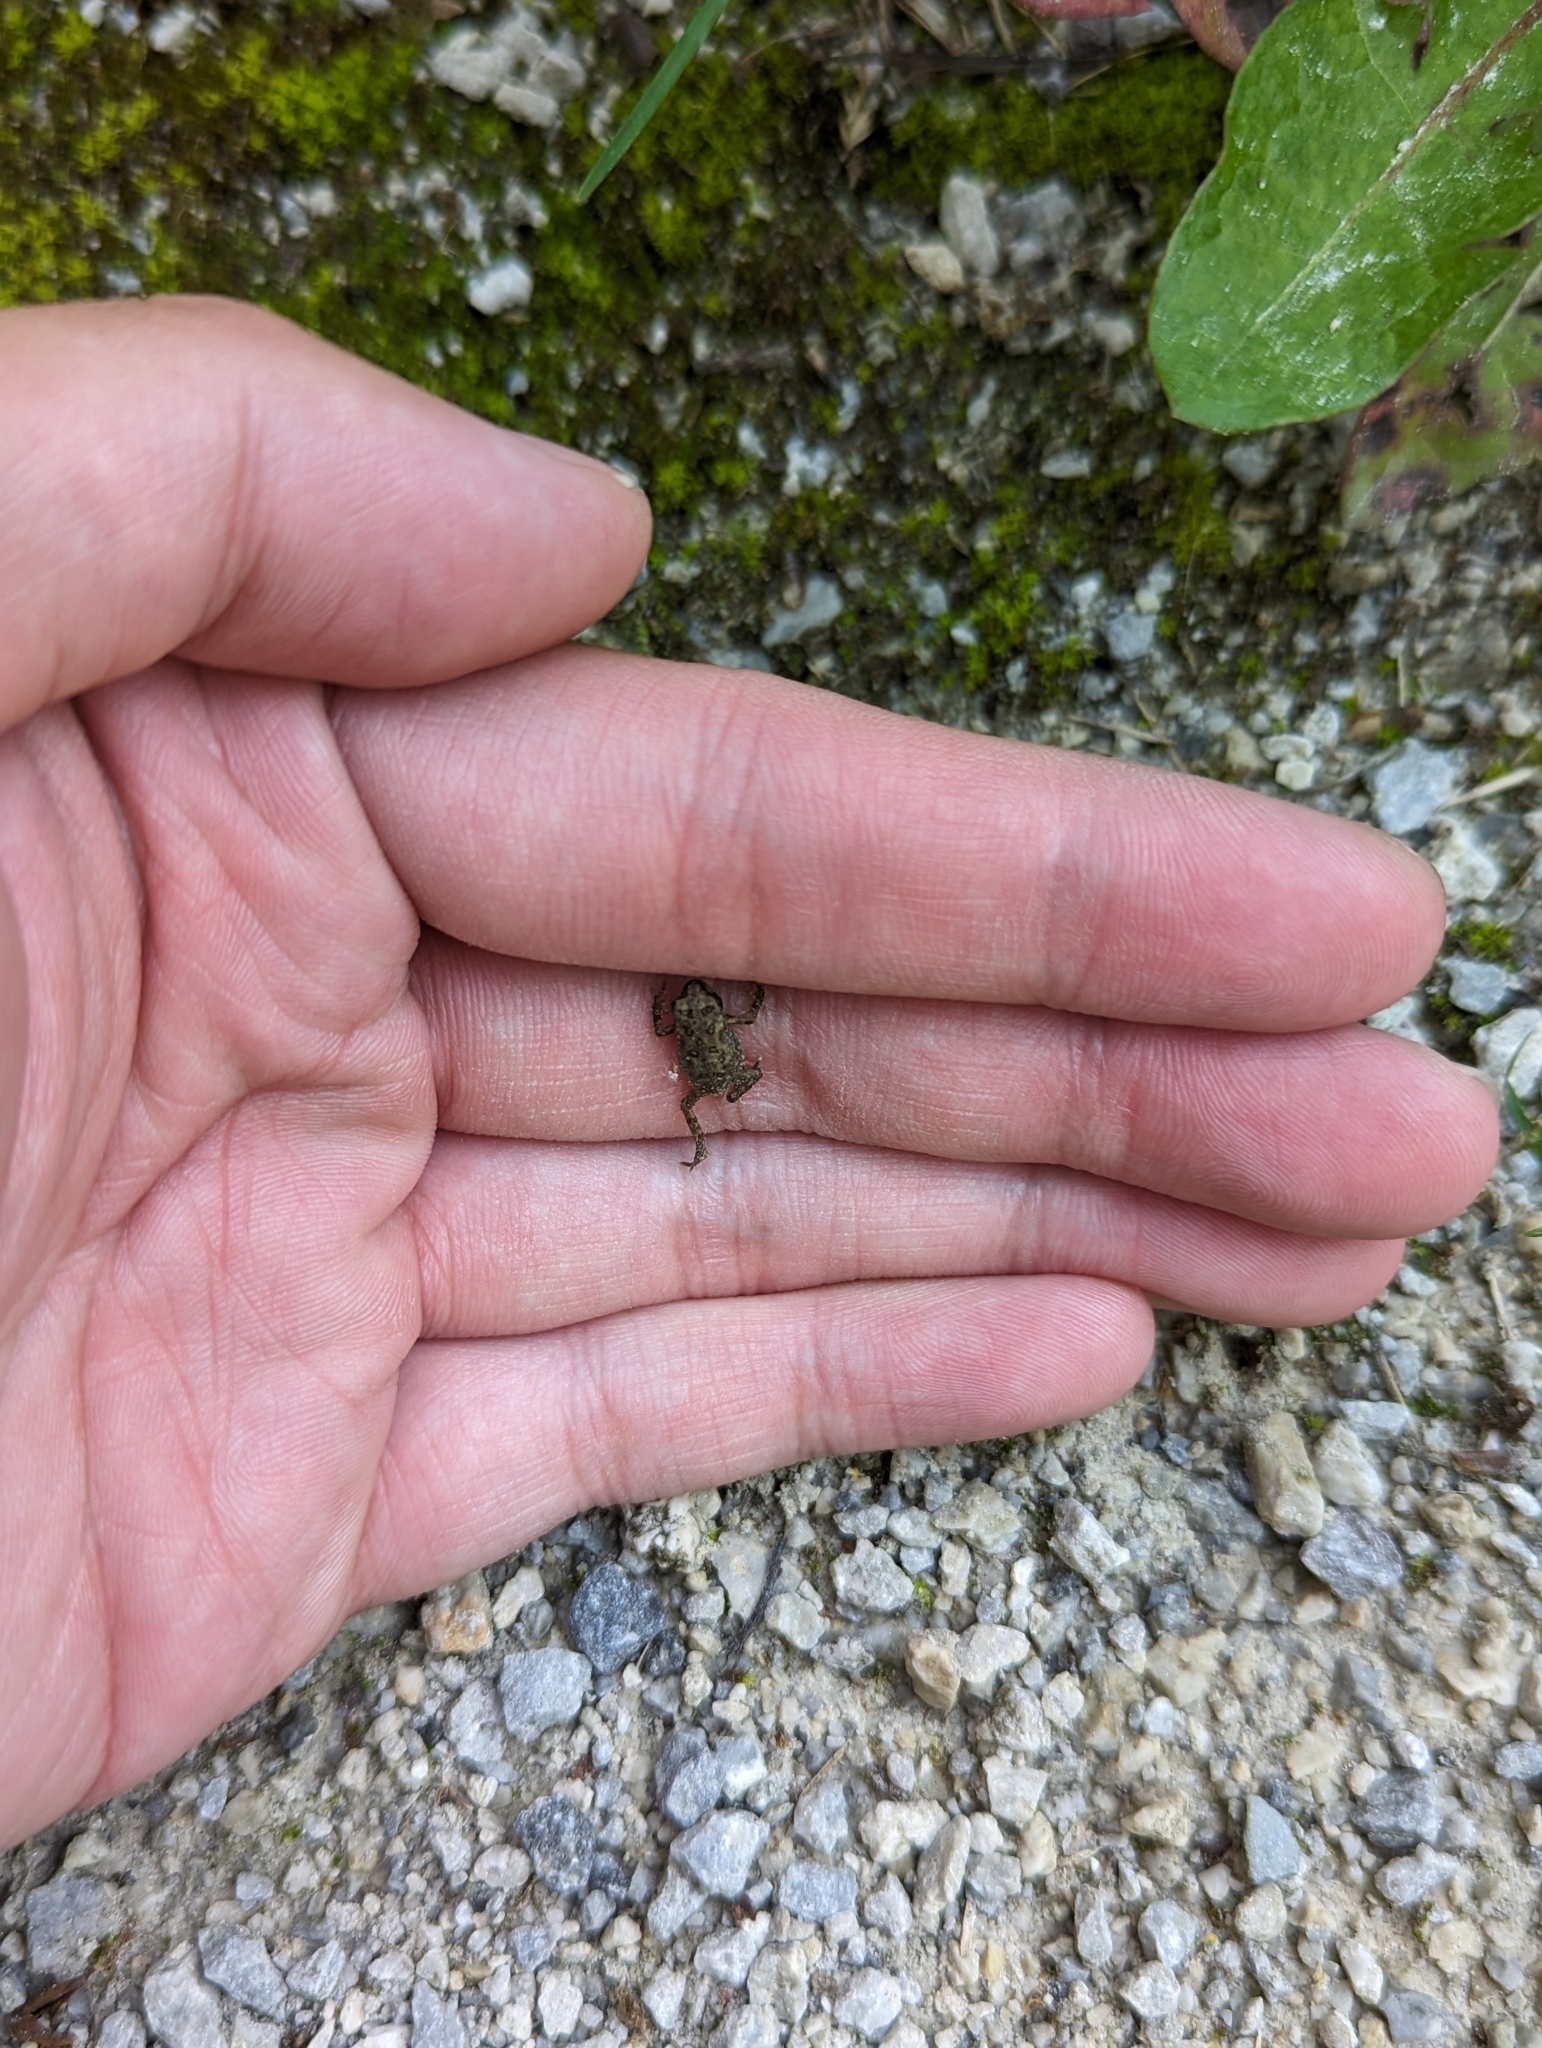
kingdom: Animalia
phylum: Chordata
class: Amphibia
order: Anura
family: Bufonidae
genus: Anaxyrus
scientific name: Anaxyrus americanus
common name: American toad
